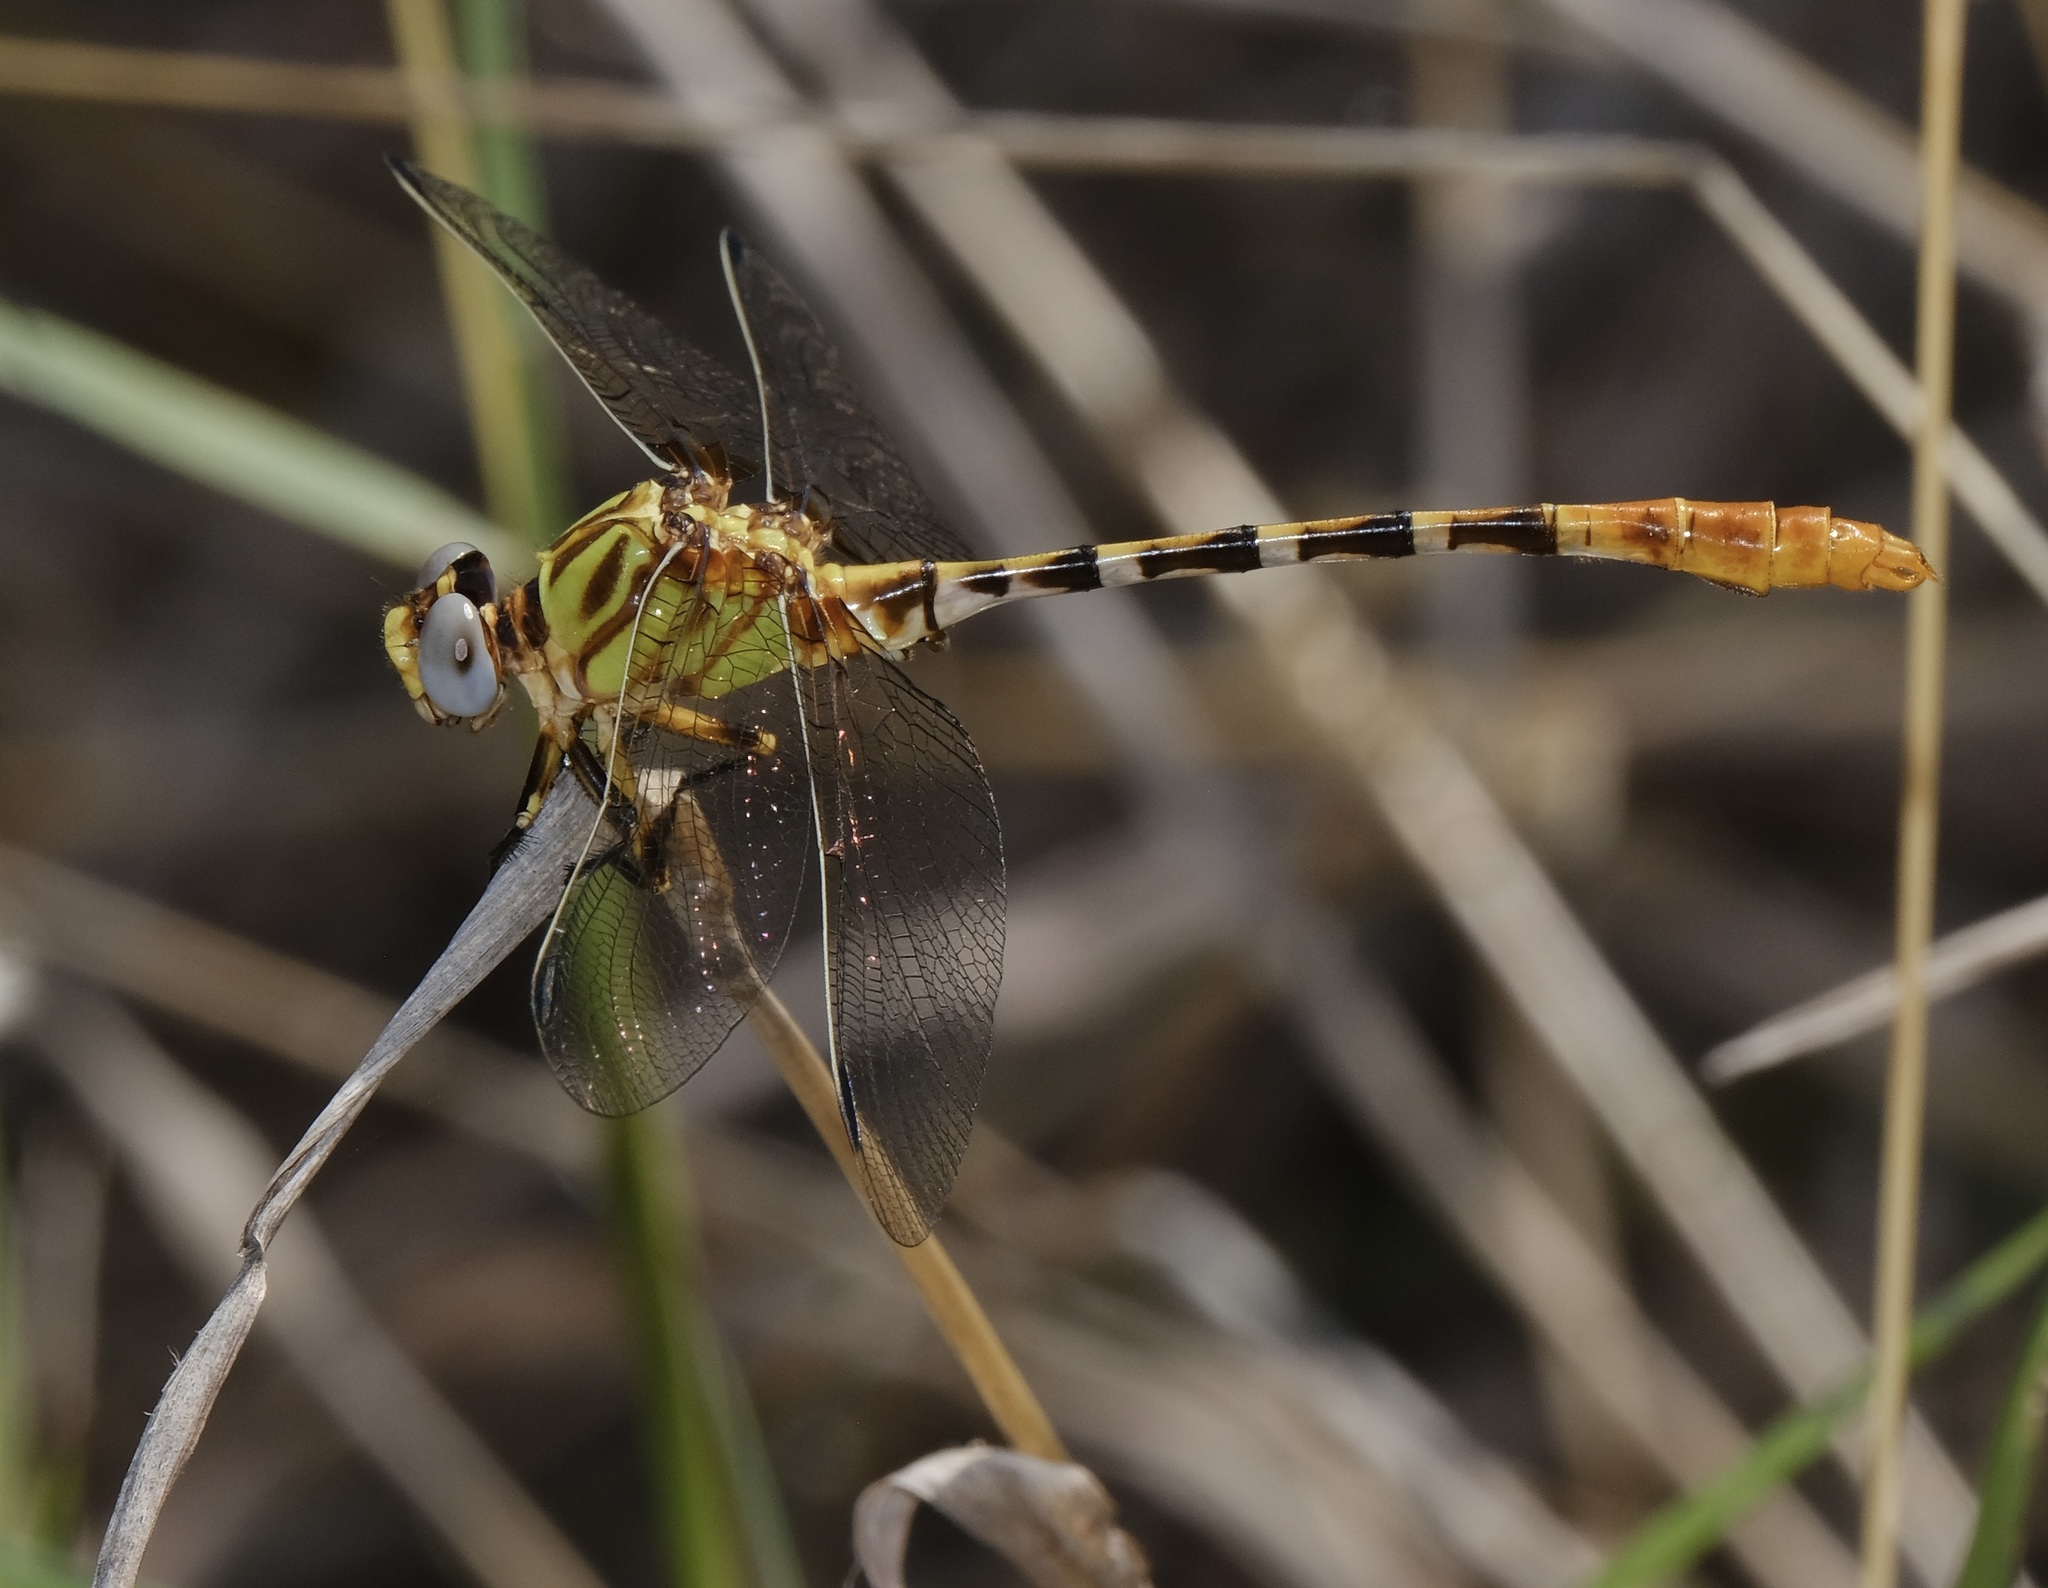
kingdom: Animalia
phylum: Arthropoda
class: Insecta
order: Odonata
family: Gomphidae
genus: Erpetogomphus
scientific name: Erpetogomphus designatus
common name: Eastern ringtail
